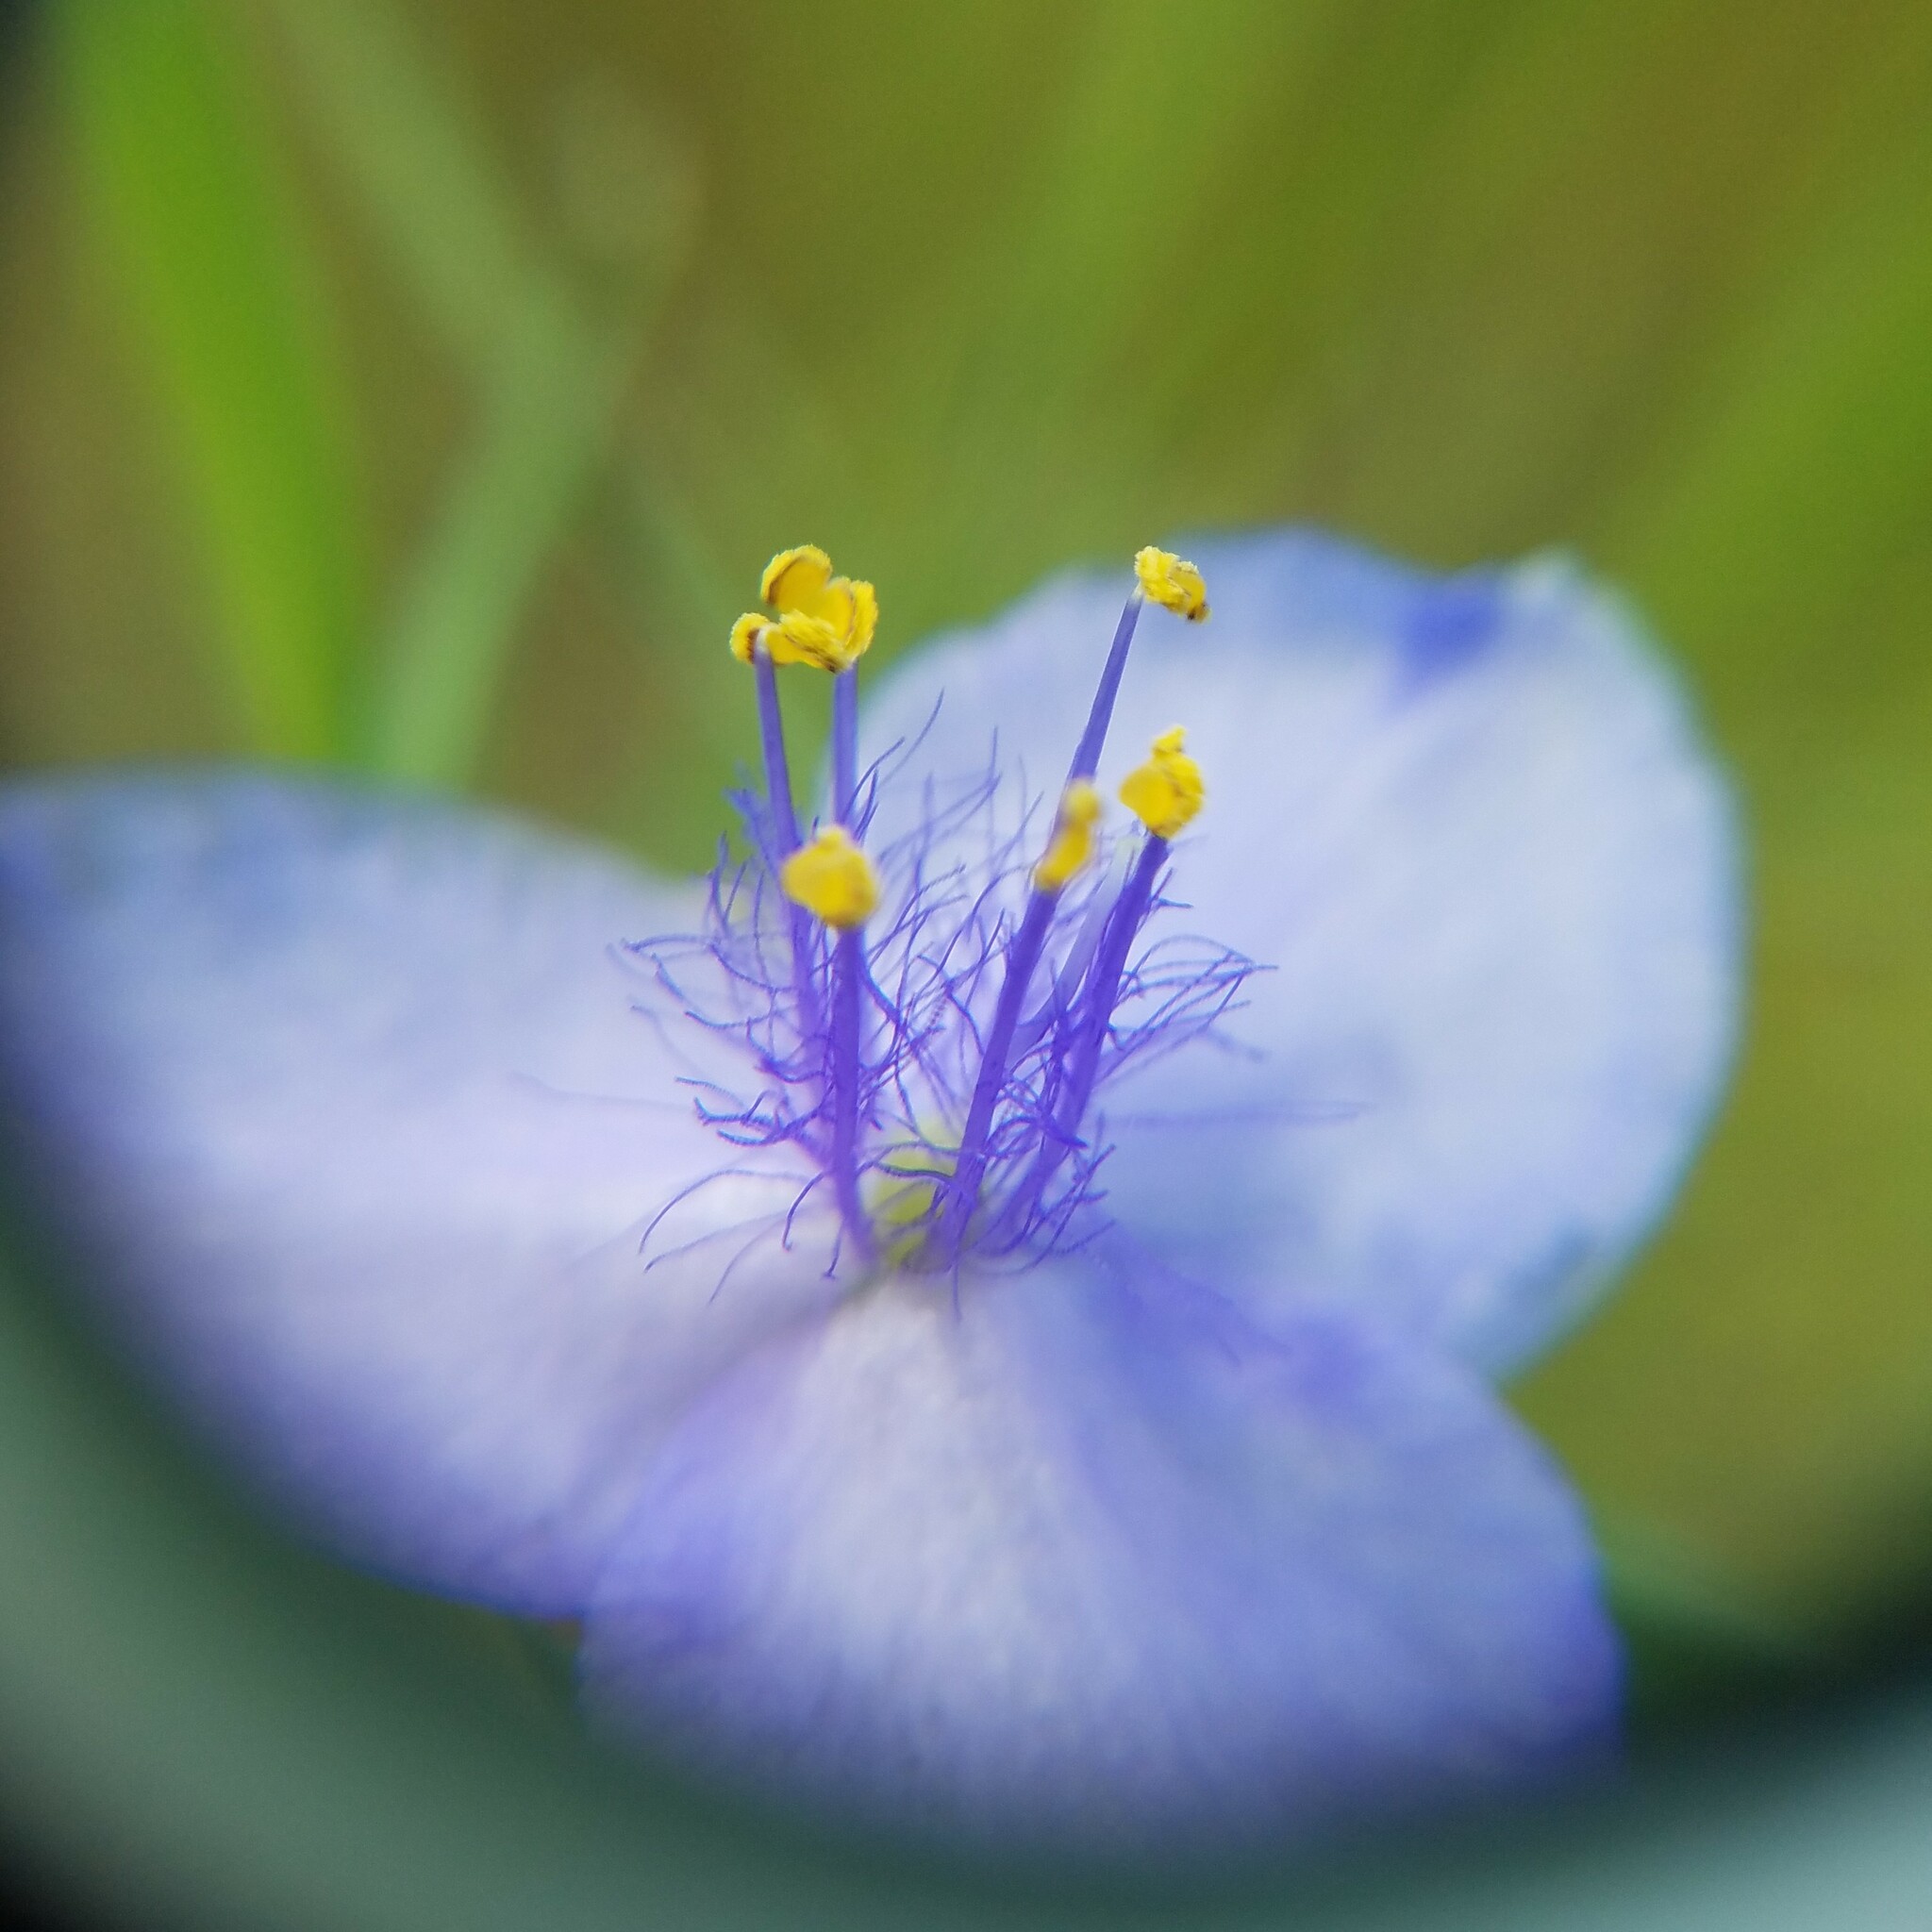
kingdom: Plantae
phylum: Tracheophyta
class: Liliopsida
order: Commelinales
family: Commelinaceae
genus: Tradescantia
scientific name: Tradescantia ohiensis
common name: Ohio spiderwort
